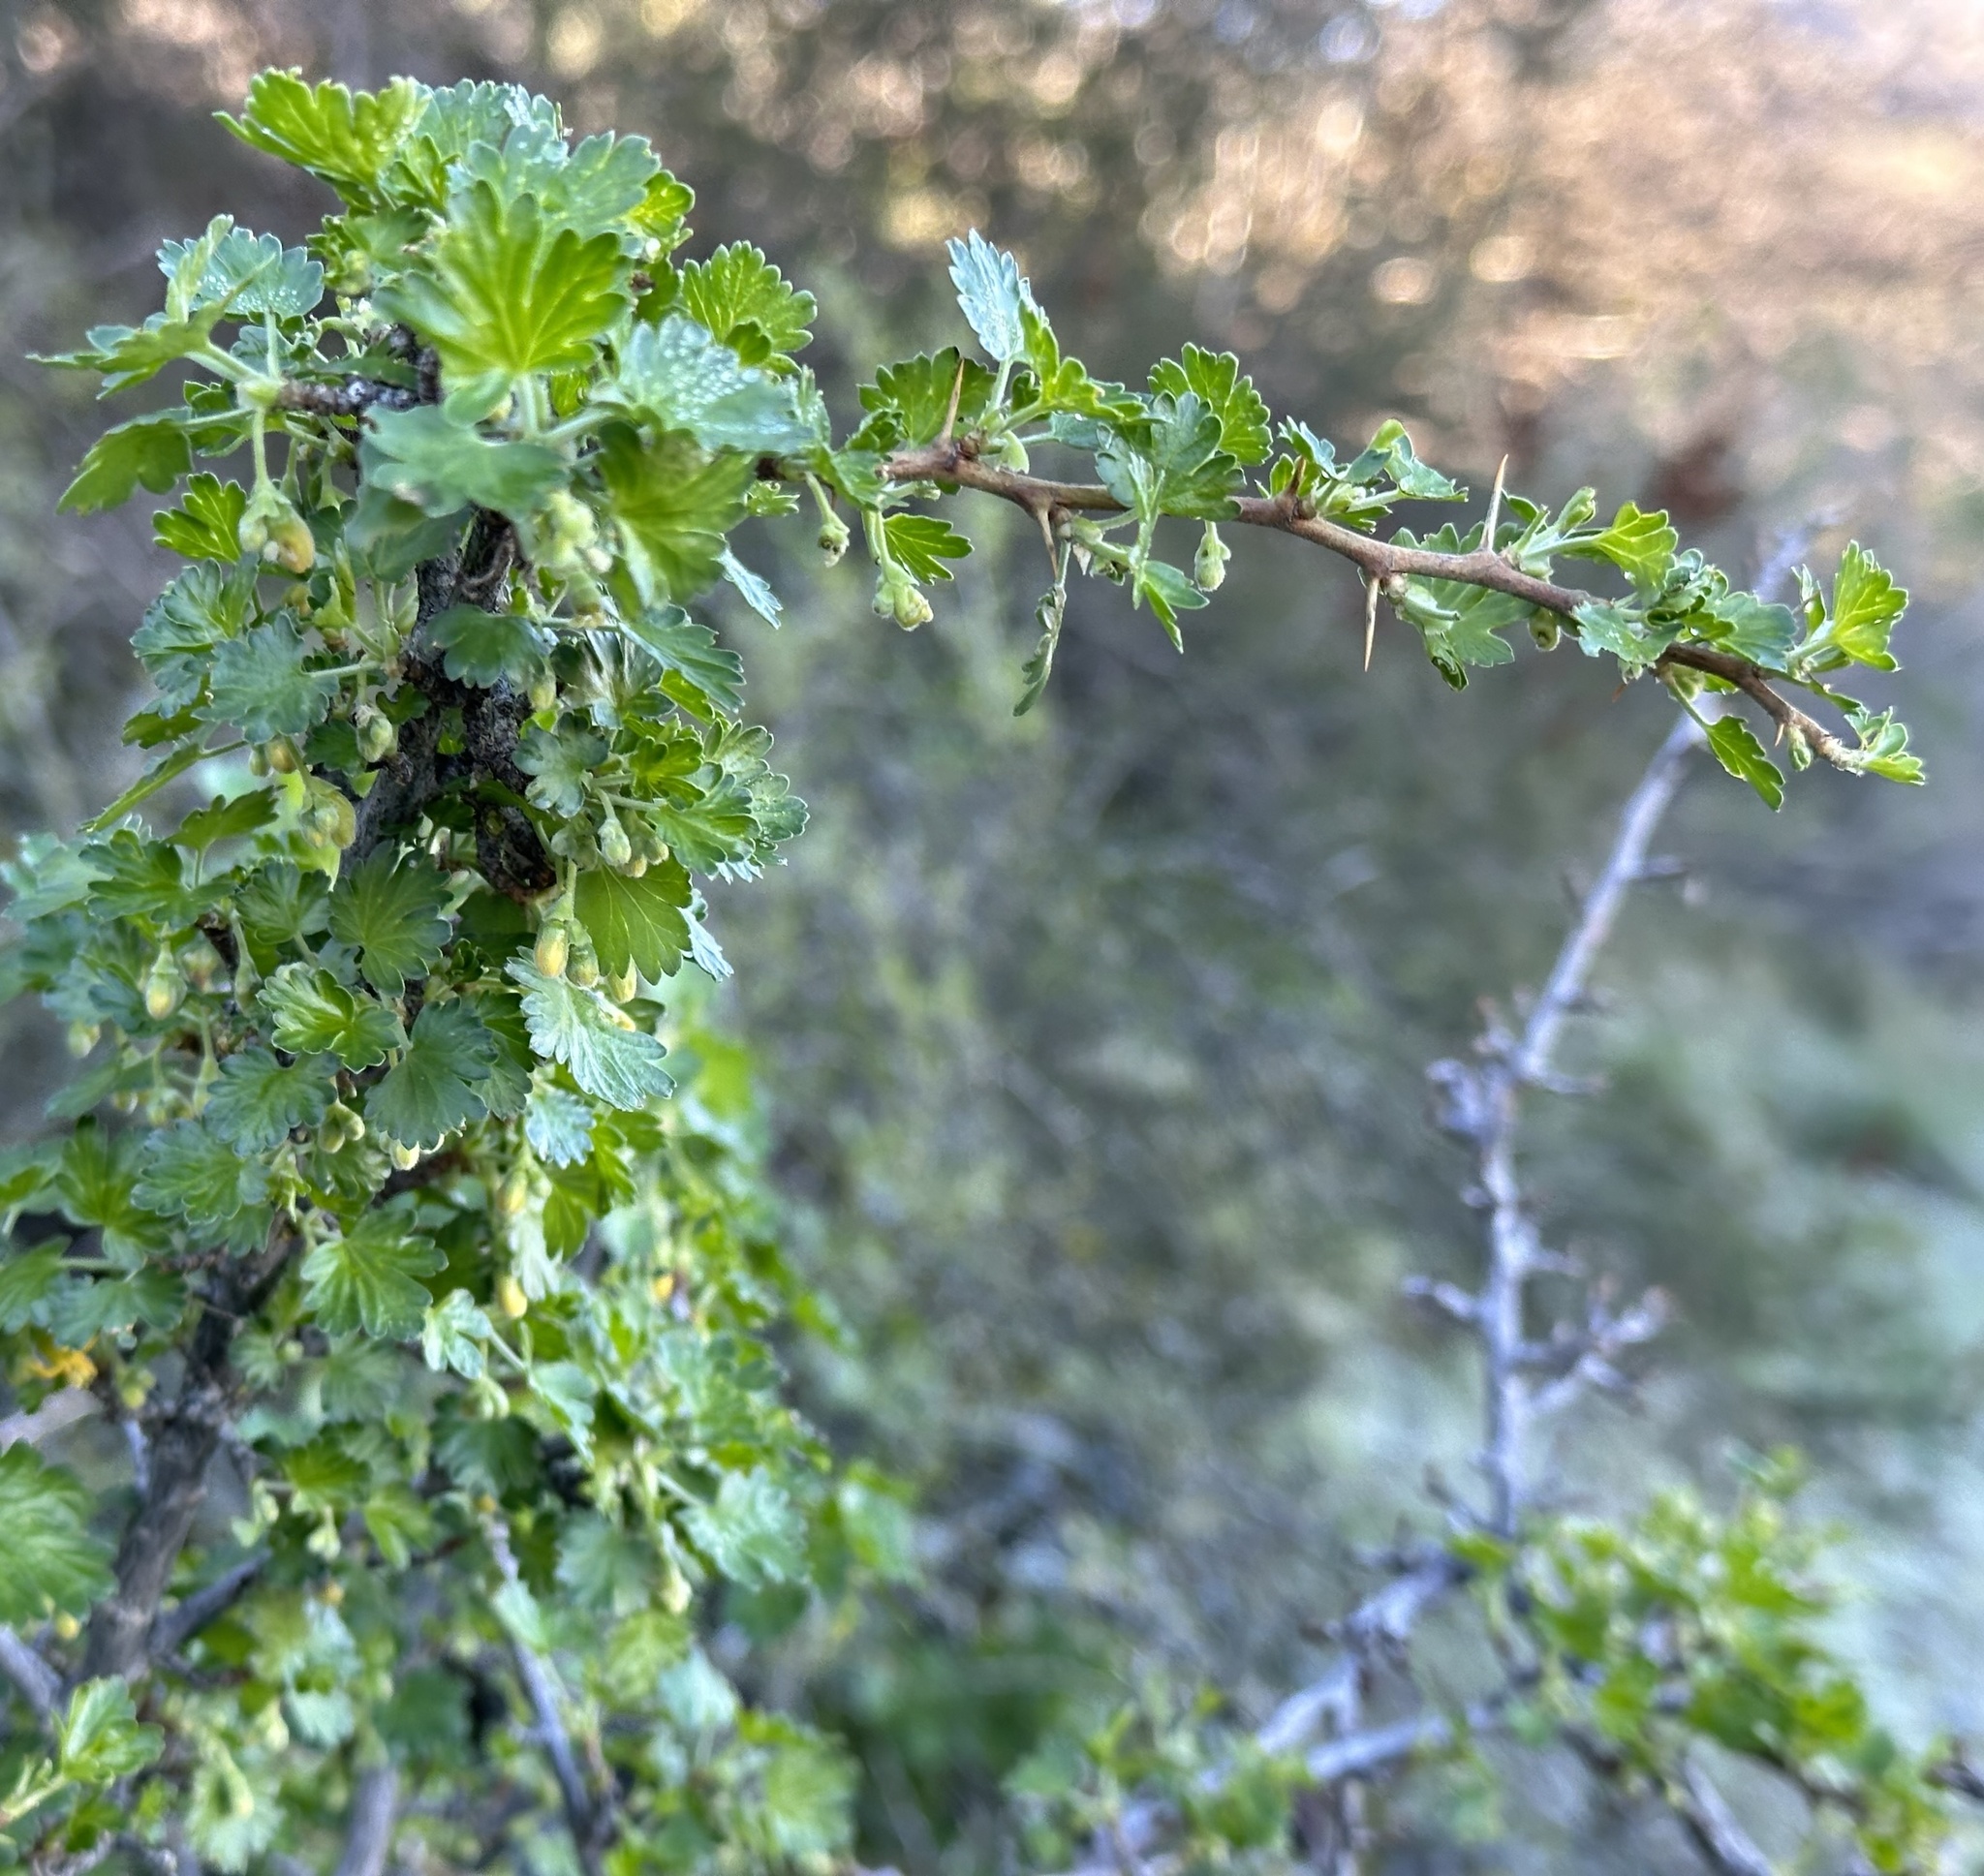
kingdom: Plantae
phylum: Tracheophyta
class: Magnoliopsida
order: Saxifragales
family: Grossulariaceae
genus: Ribes
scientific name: Ribes quercetorum
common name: Oak gooseberry
